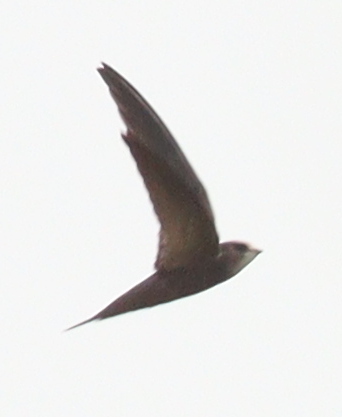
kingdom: Animalia
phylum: Chordata
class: Aves
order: Apodiformes
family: Apodidae
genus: Apus
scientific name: Apus pallidus
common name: Pallid swift
